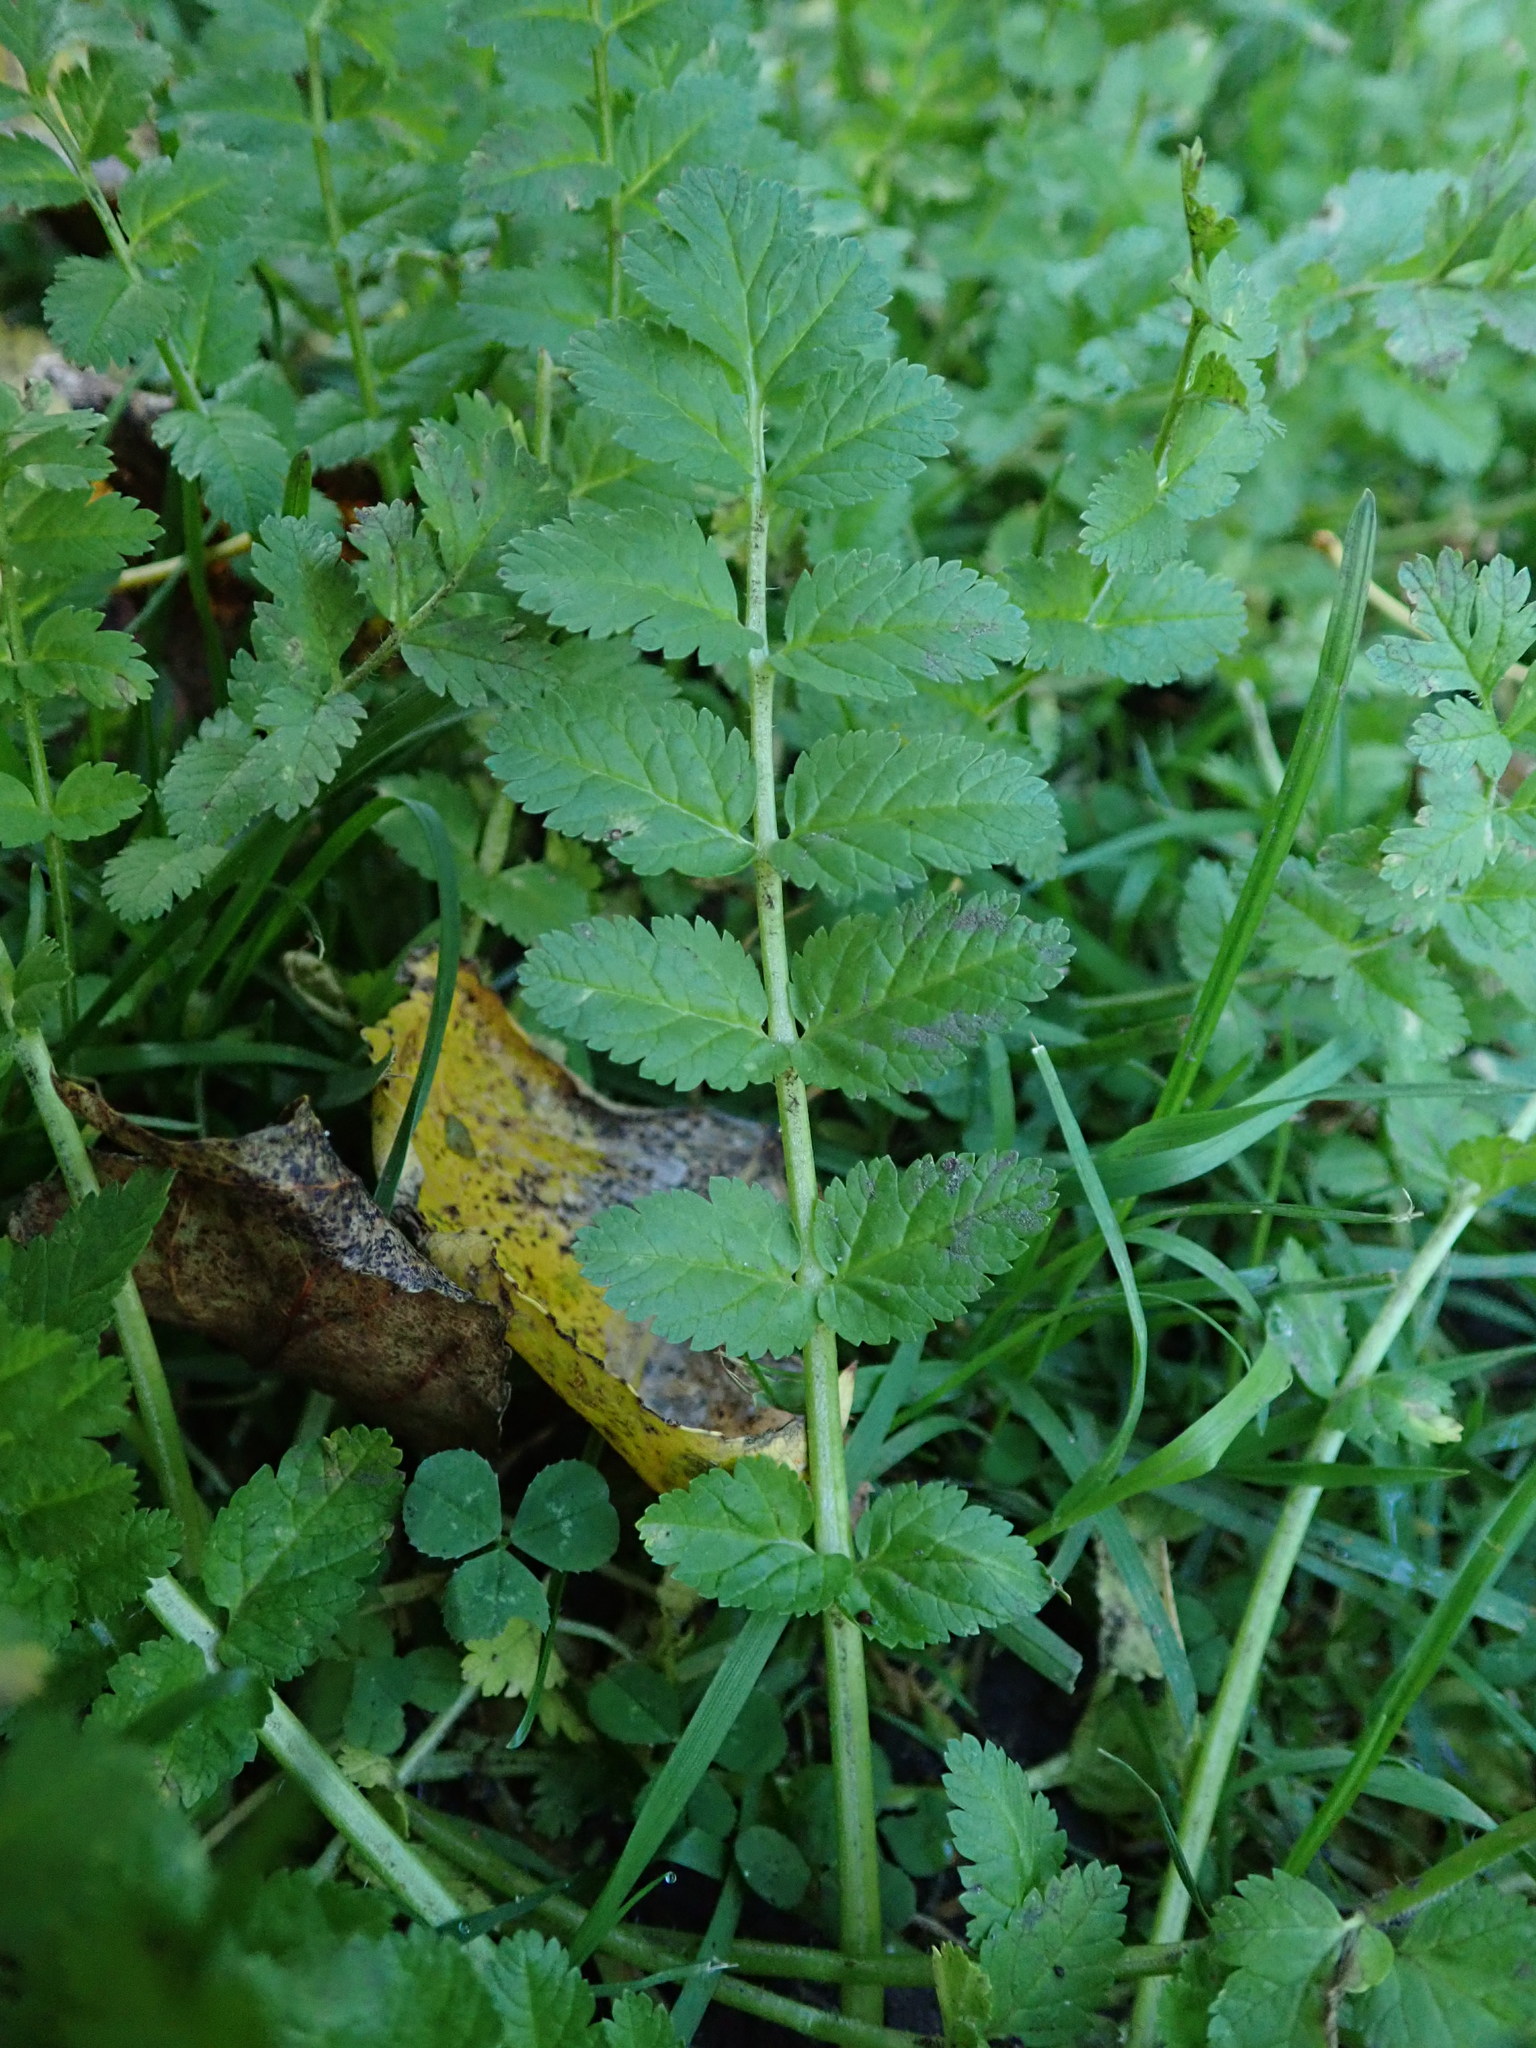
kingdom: Plantae
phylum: Tracheophyta
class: Magnoliopsida
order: Geraniales
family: Geraniaceae
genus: Erodium
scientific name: Erodium moschatum
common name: Musk stork's-bill
